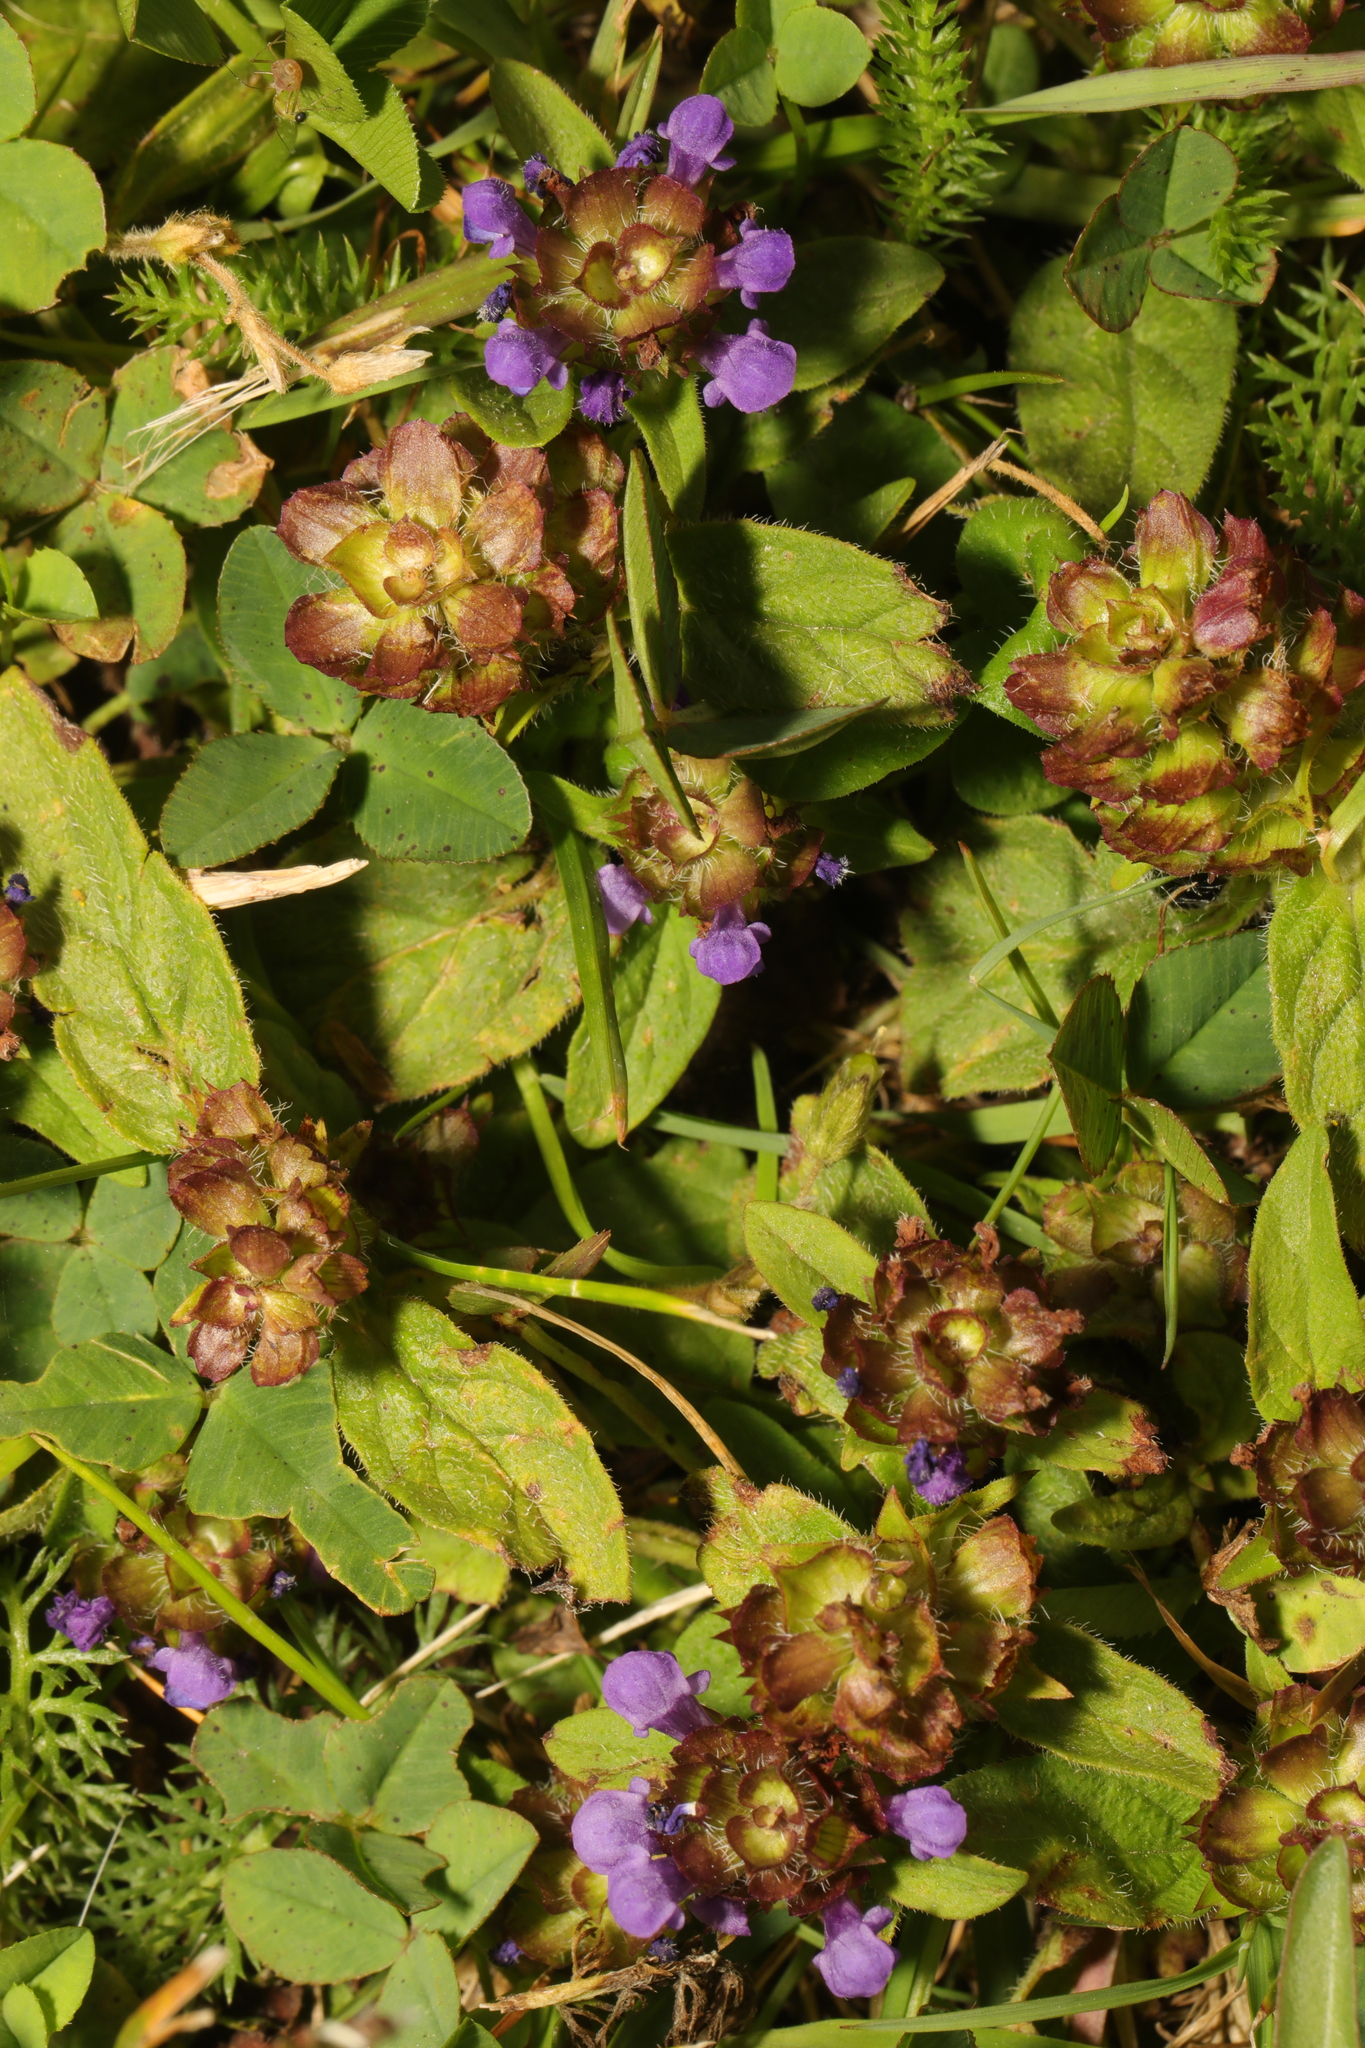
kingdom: Plantae
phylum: Tracheophyta
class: Magnoliopsida
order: Lamiales
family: Lamiaceae
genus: Prunella
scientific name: Prunella vulgaris
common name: Heal-all
